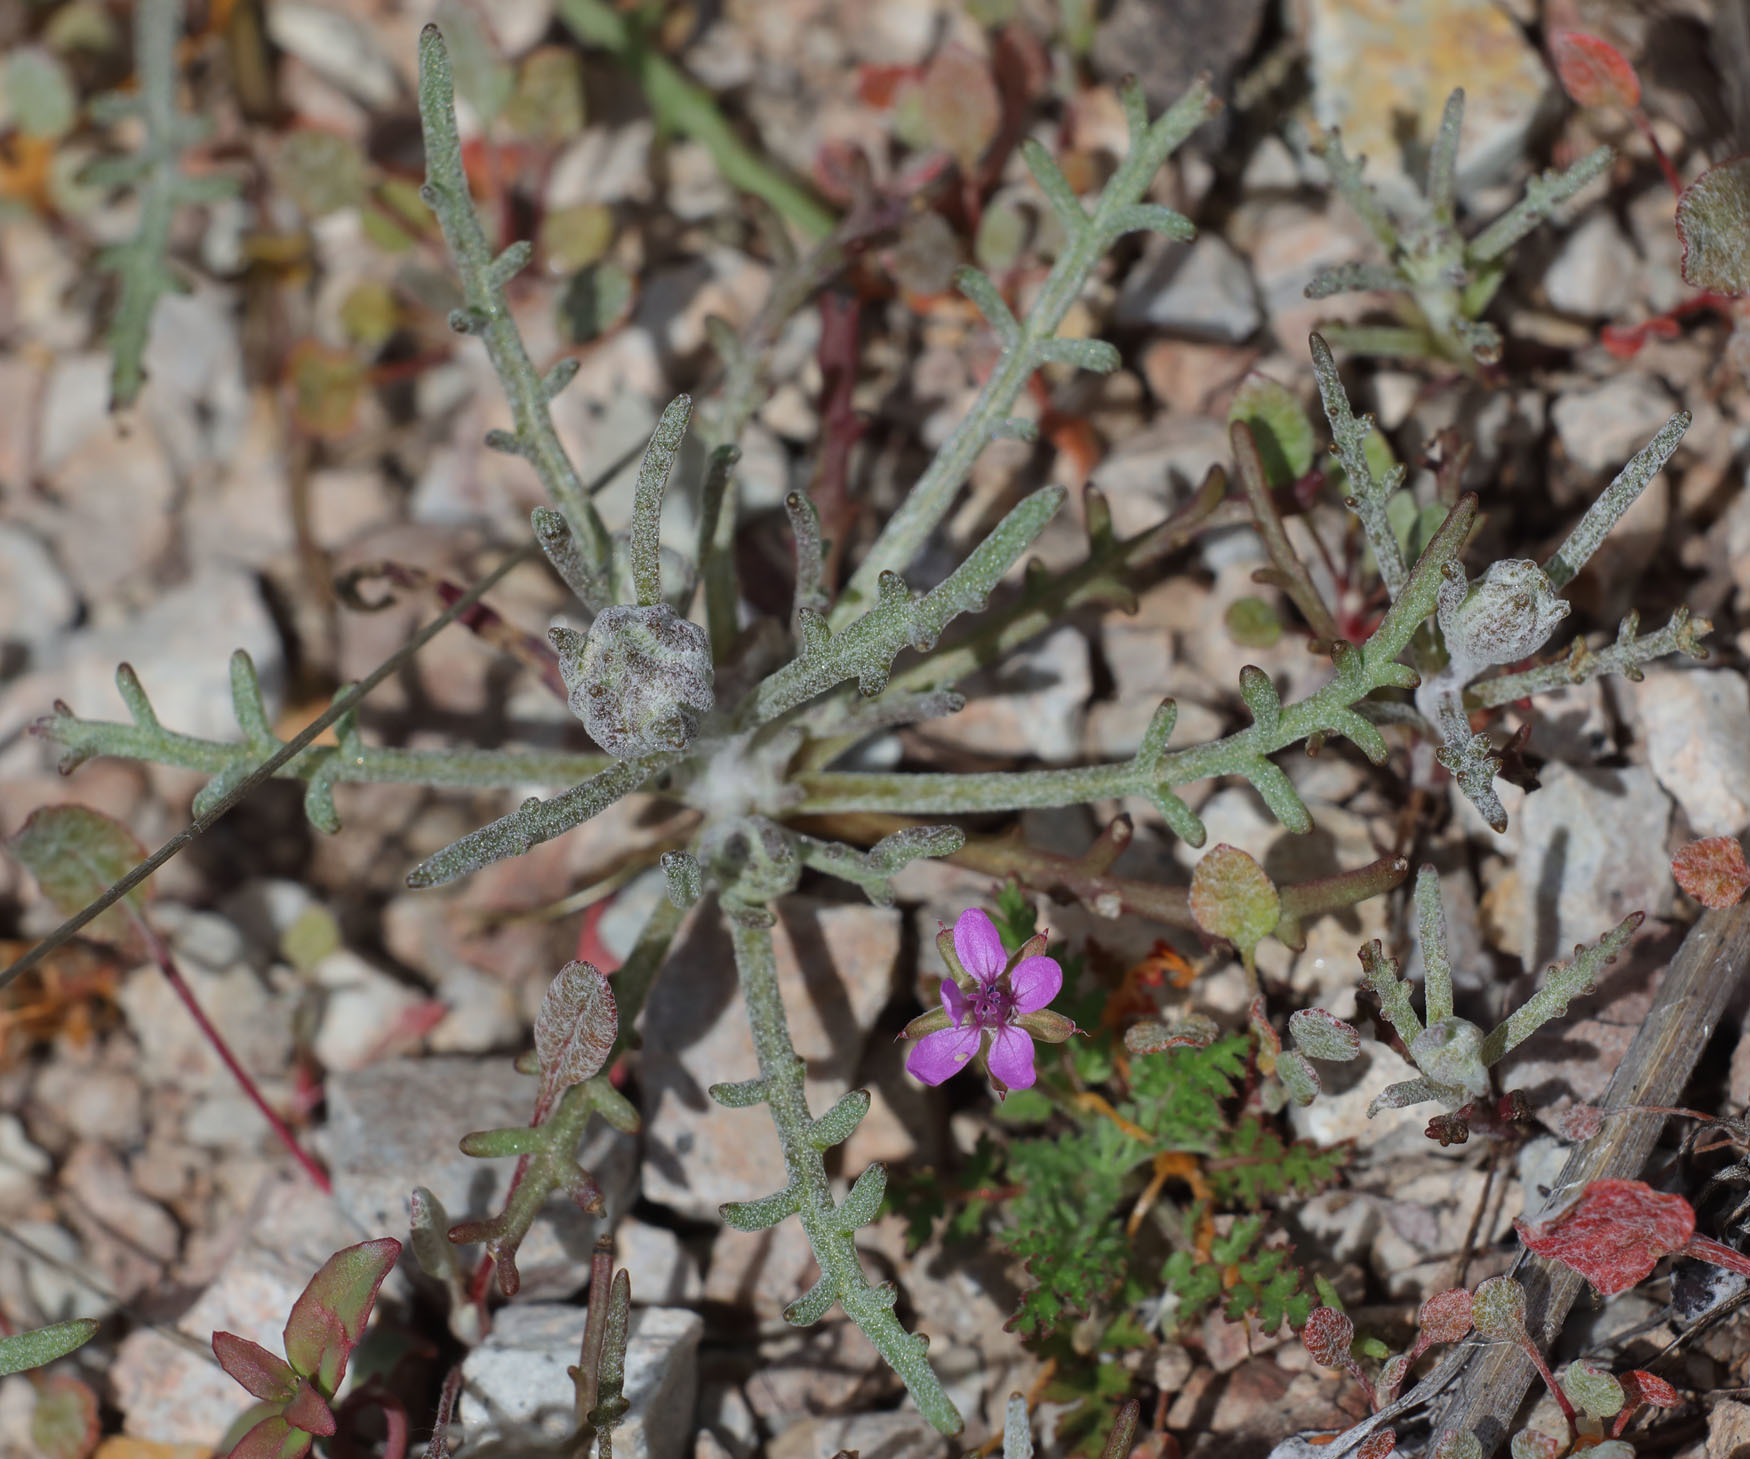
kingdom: Plantae
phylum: Tracheophyta
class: Magnoliopsida
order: Asterales
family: Asteraceae
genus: Chaenactis
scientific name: Chaenactis glabriuscula
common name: Yellow pincushion
